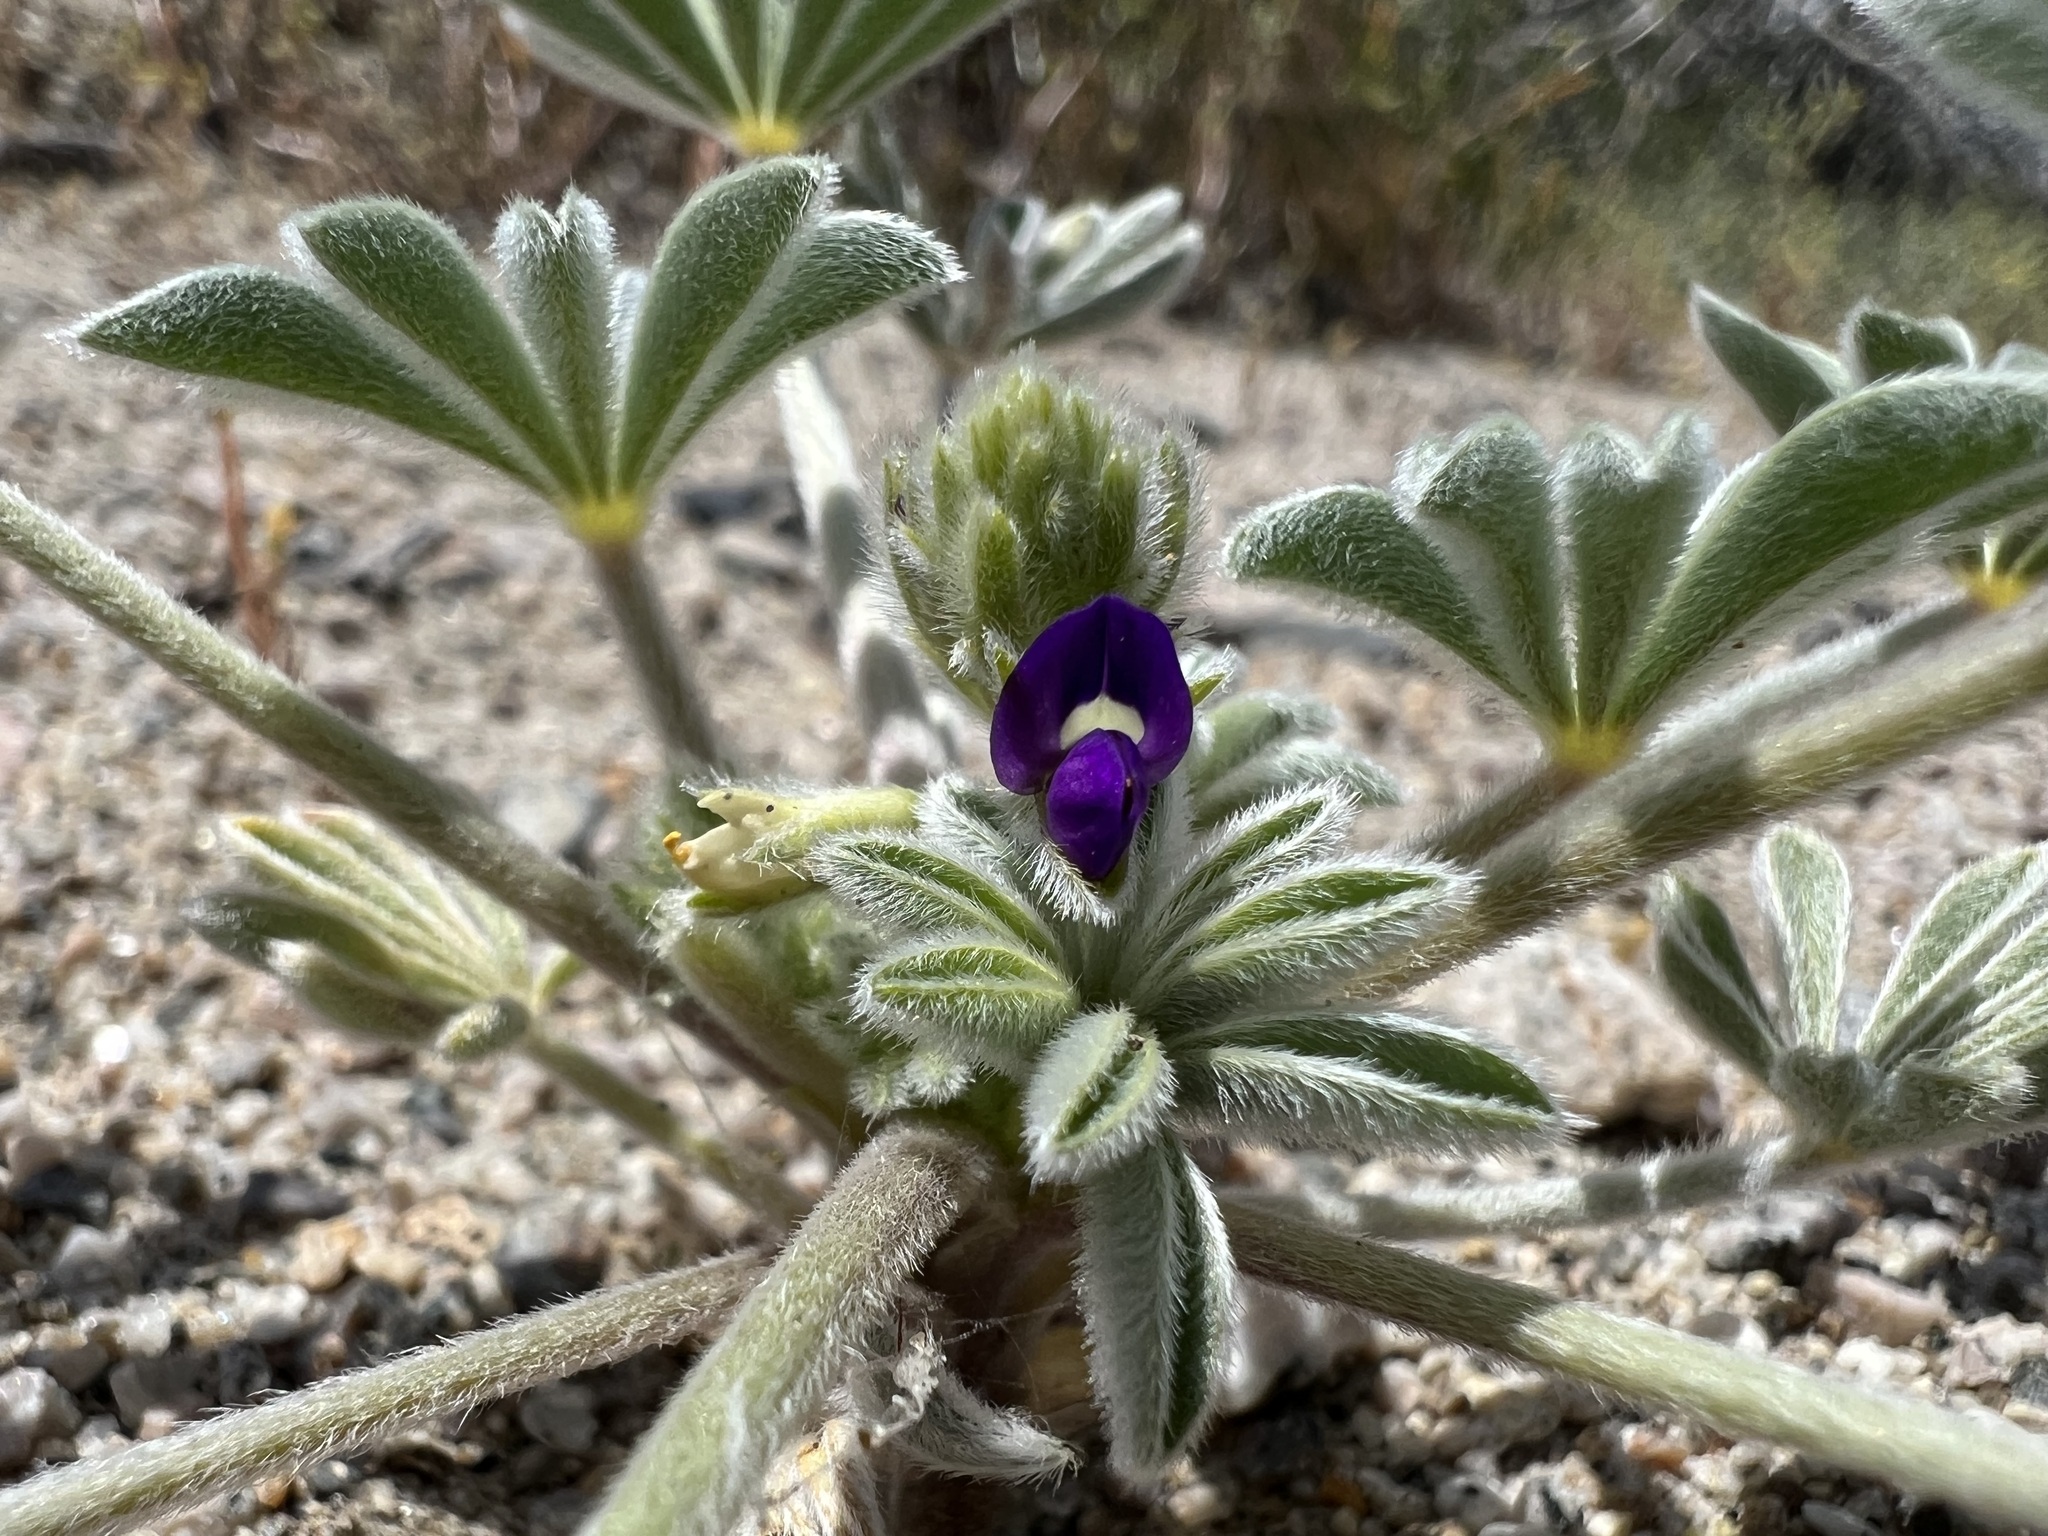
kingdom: Plantae
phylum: Tracheophyta
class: Magnoliopsida
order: Fabales
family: Fabaceae
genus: Lupinus
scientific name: Lupinus shockleyi
